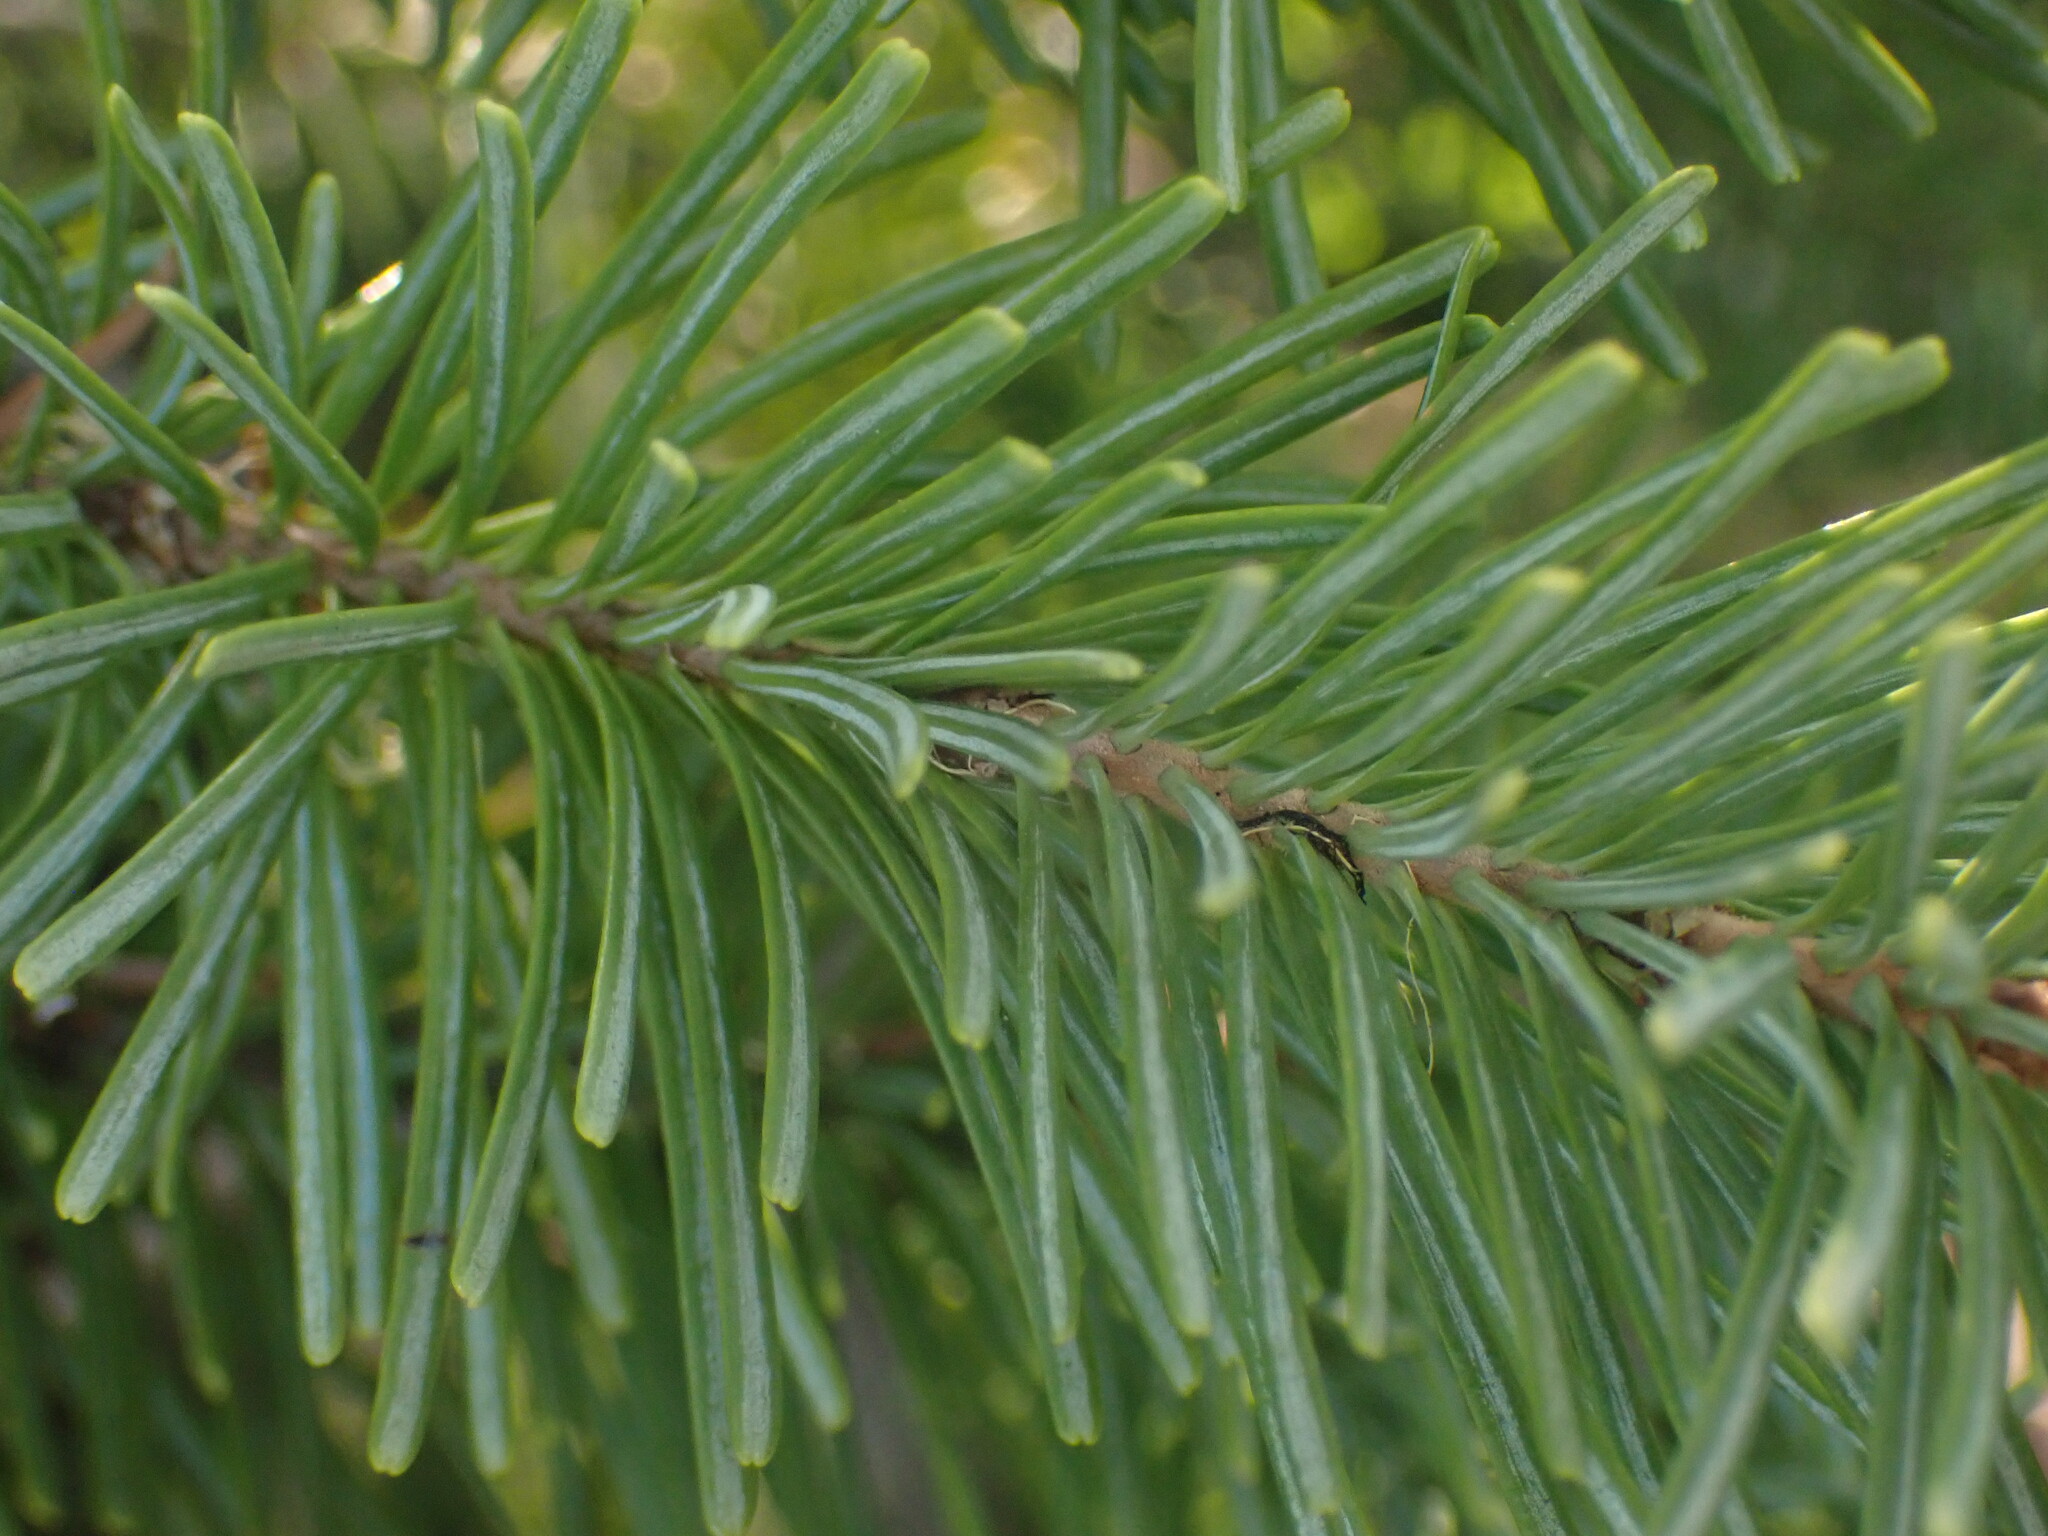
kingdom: Plantae
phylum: Tracheophyta
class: Pinopsida
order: Pinales
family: Pinaceae
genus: Abies
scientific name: Abies lasiocarpa
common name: Subalpine fir
